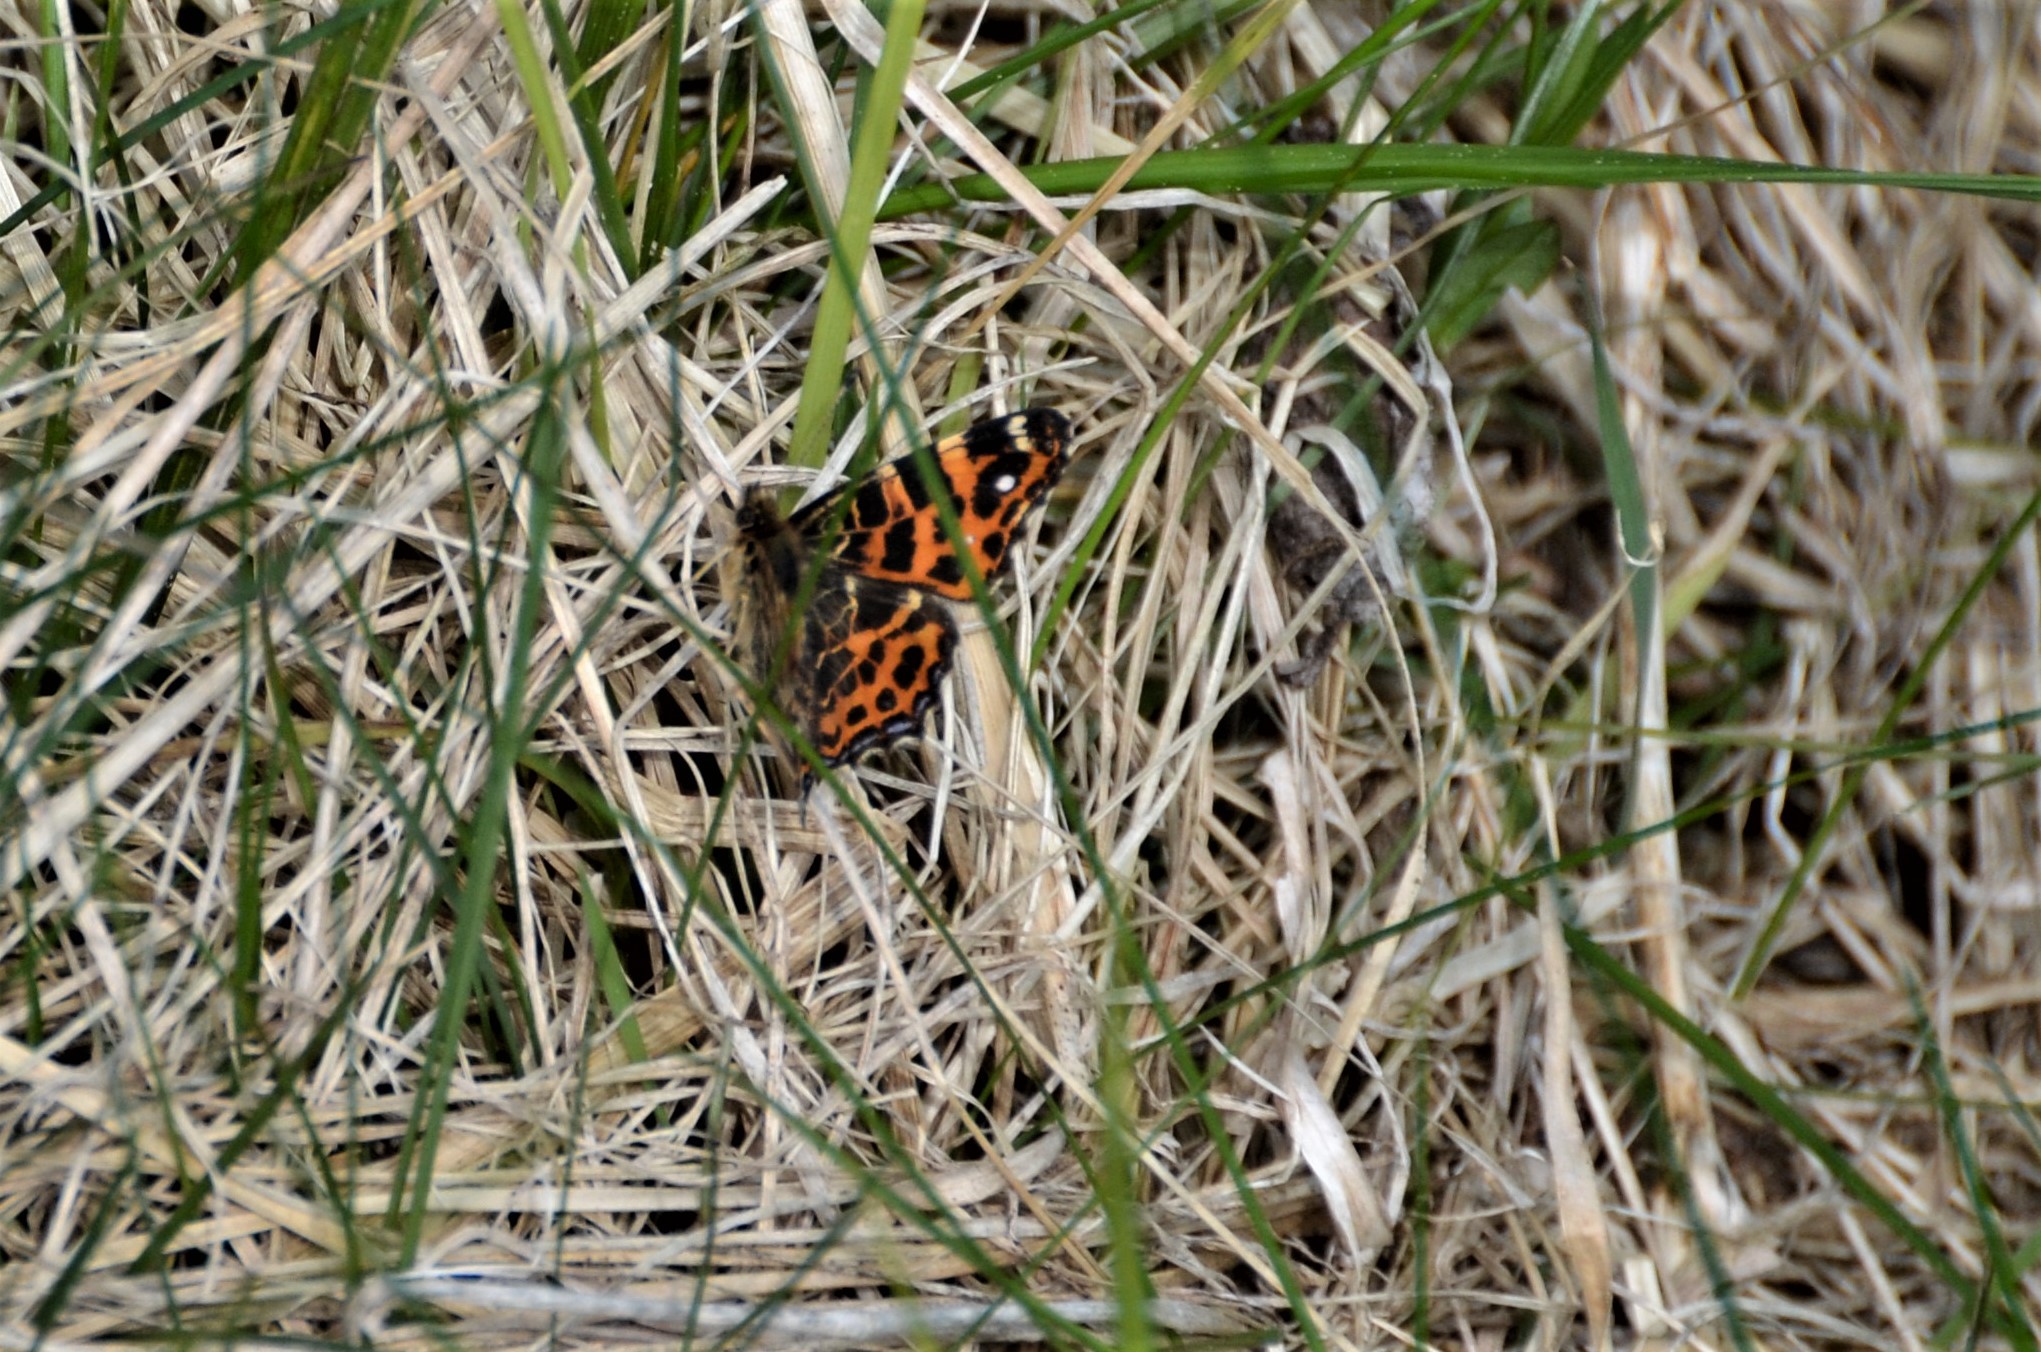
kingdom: Animalia
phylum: Arthropoda
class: Insecta
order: Lepidoptera
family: Nymphalidae
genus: Araschnia
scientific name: Araschnia levana
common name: Map butterfly
